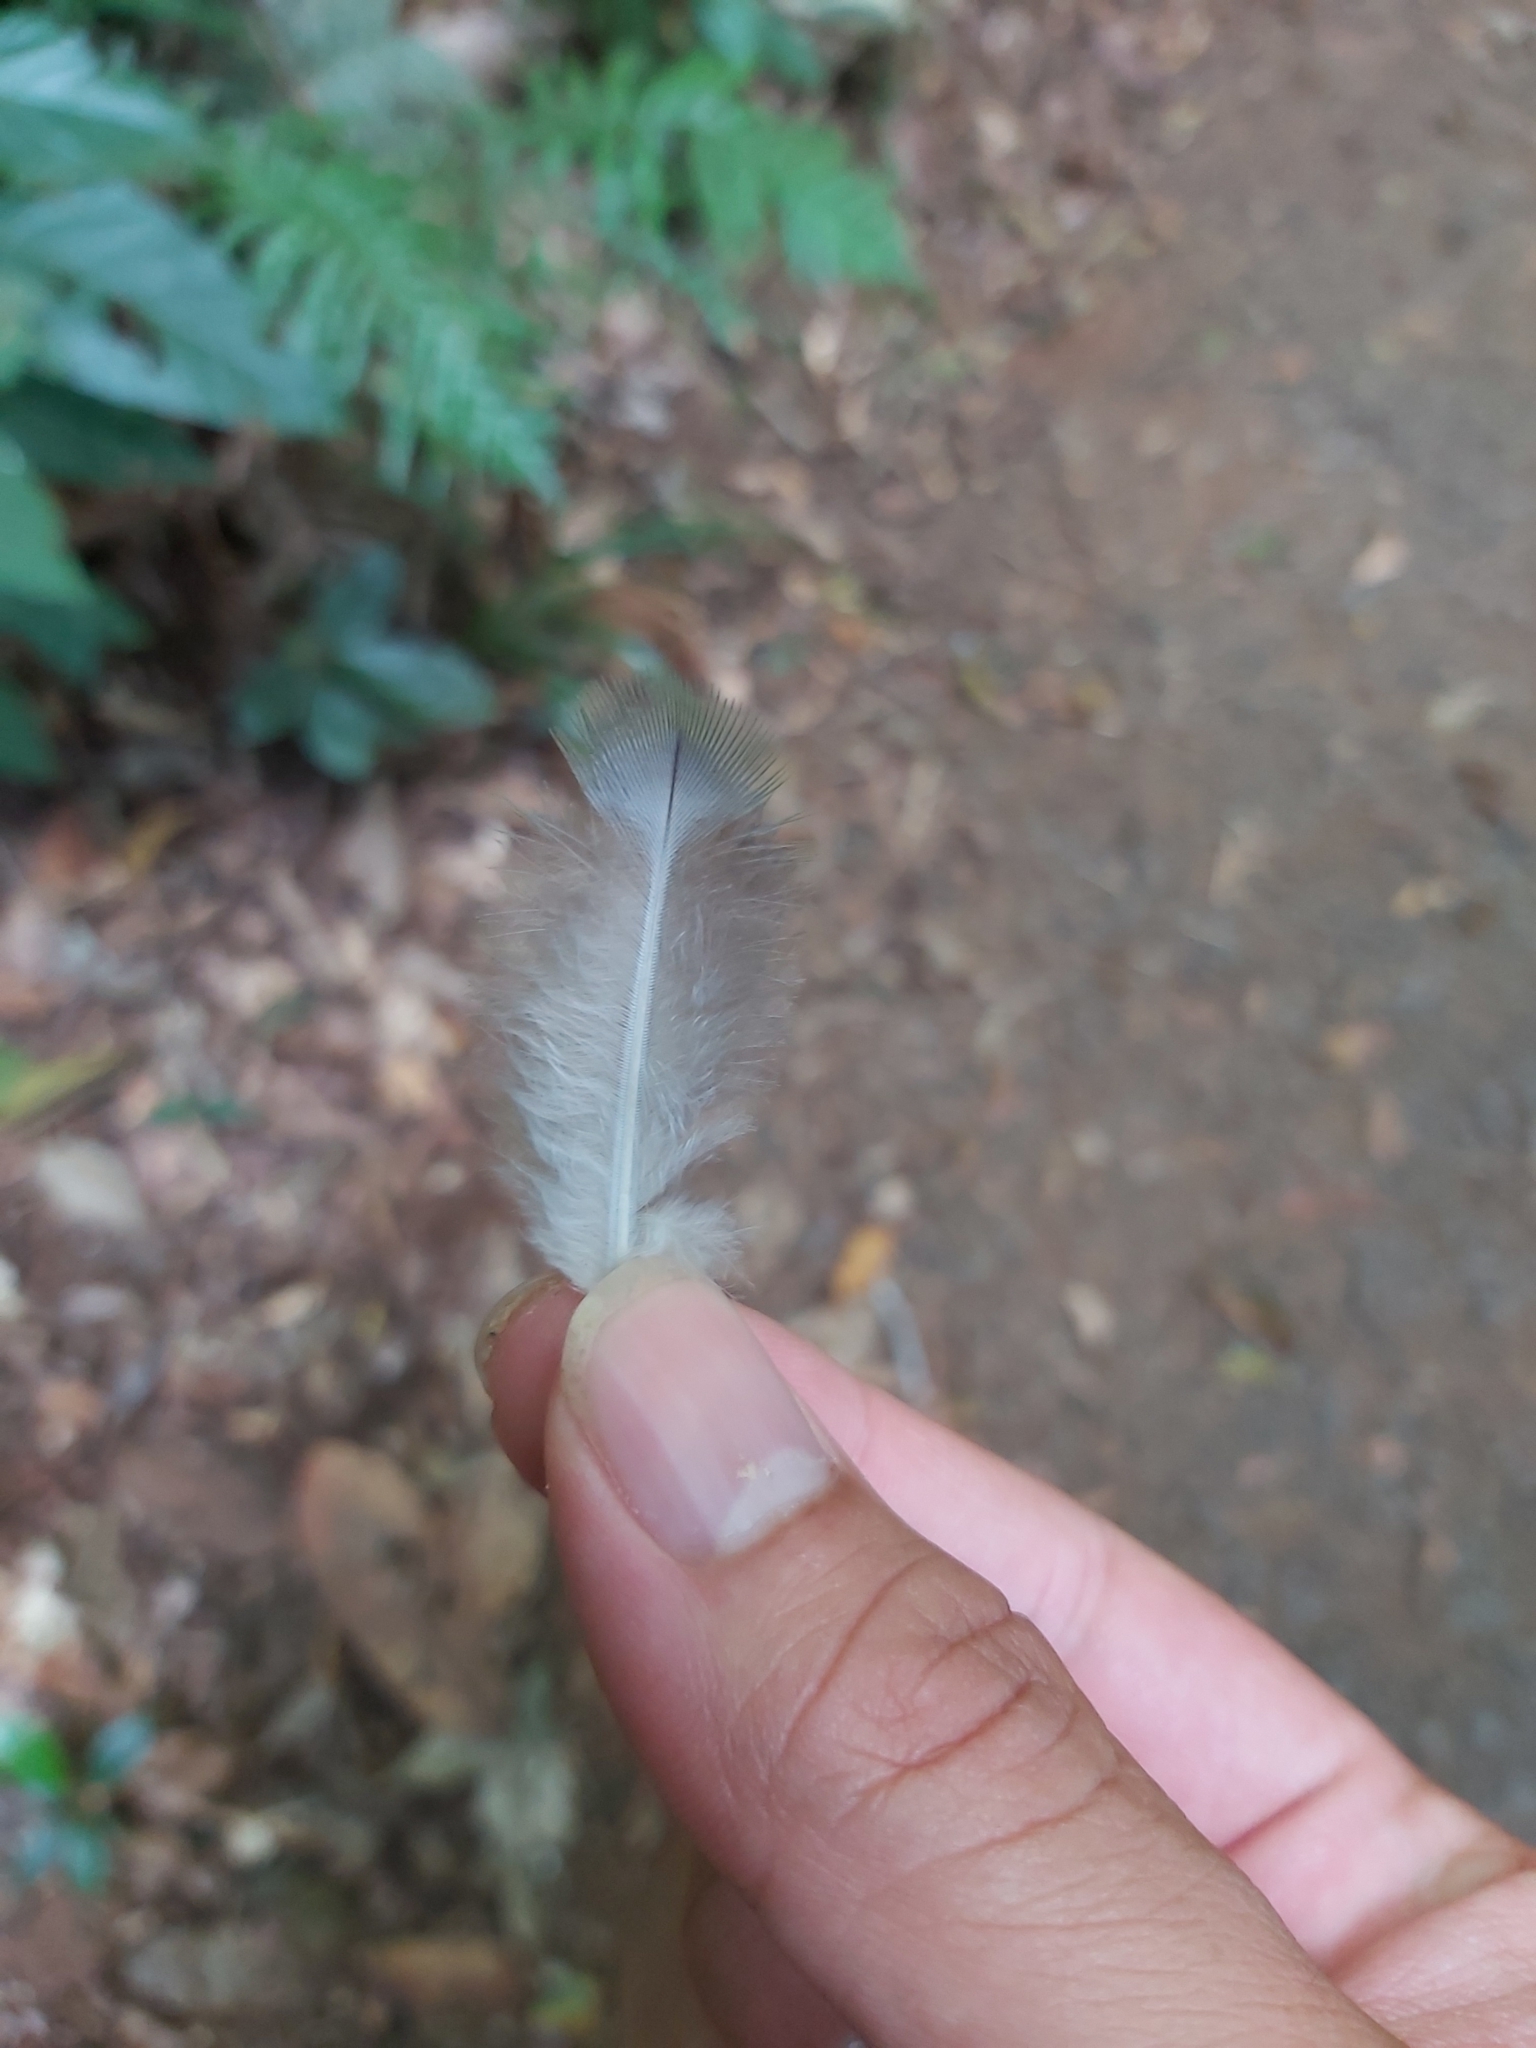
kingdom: Animalia
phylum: Chordata
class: Aves
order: Columbiformes
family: Columbidae
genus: Ptilinopus
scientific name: Ptilinopus magnificus
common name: Wompoo fruit dove
